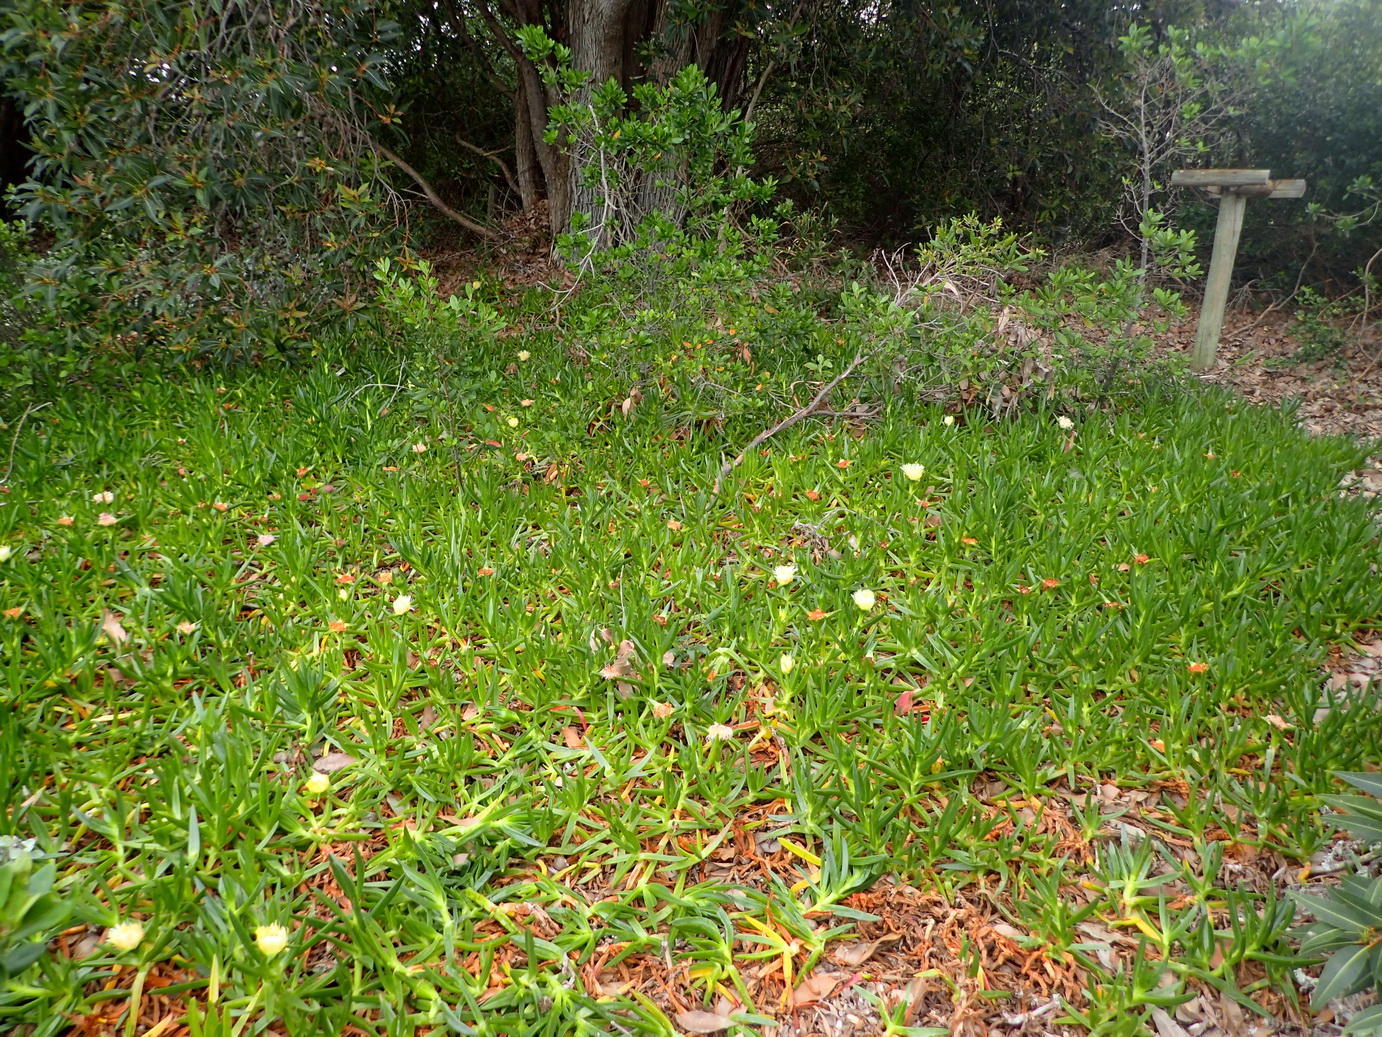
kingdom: Plantae
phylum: Tracheophyta
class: Magnoliopsida
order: Caryophyllales
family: Aizoaceae
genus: Carpobrotus
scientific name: Carpobrotus edulis
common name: Hottentot-fig
